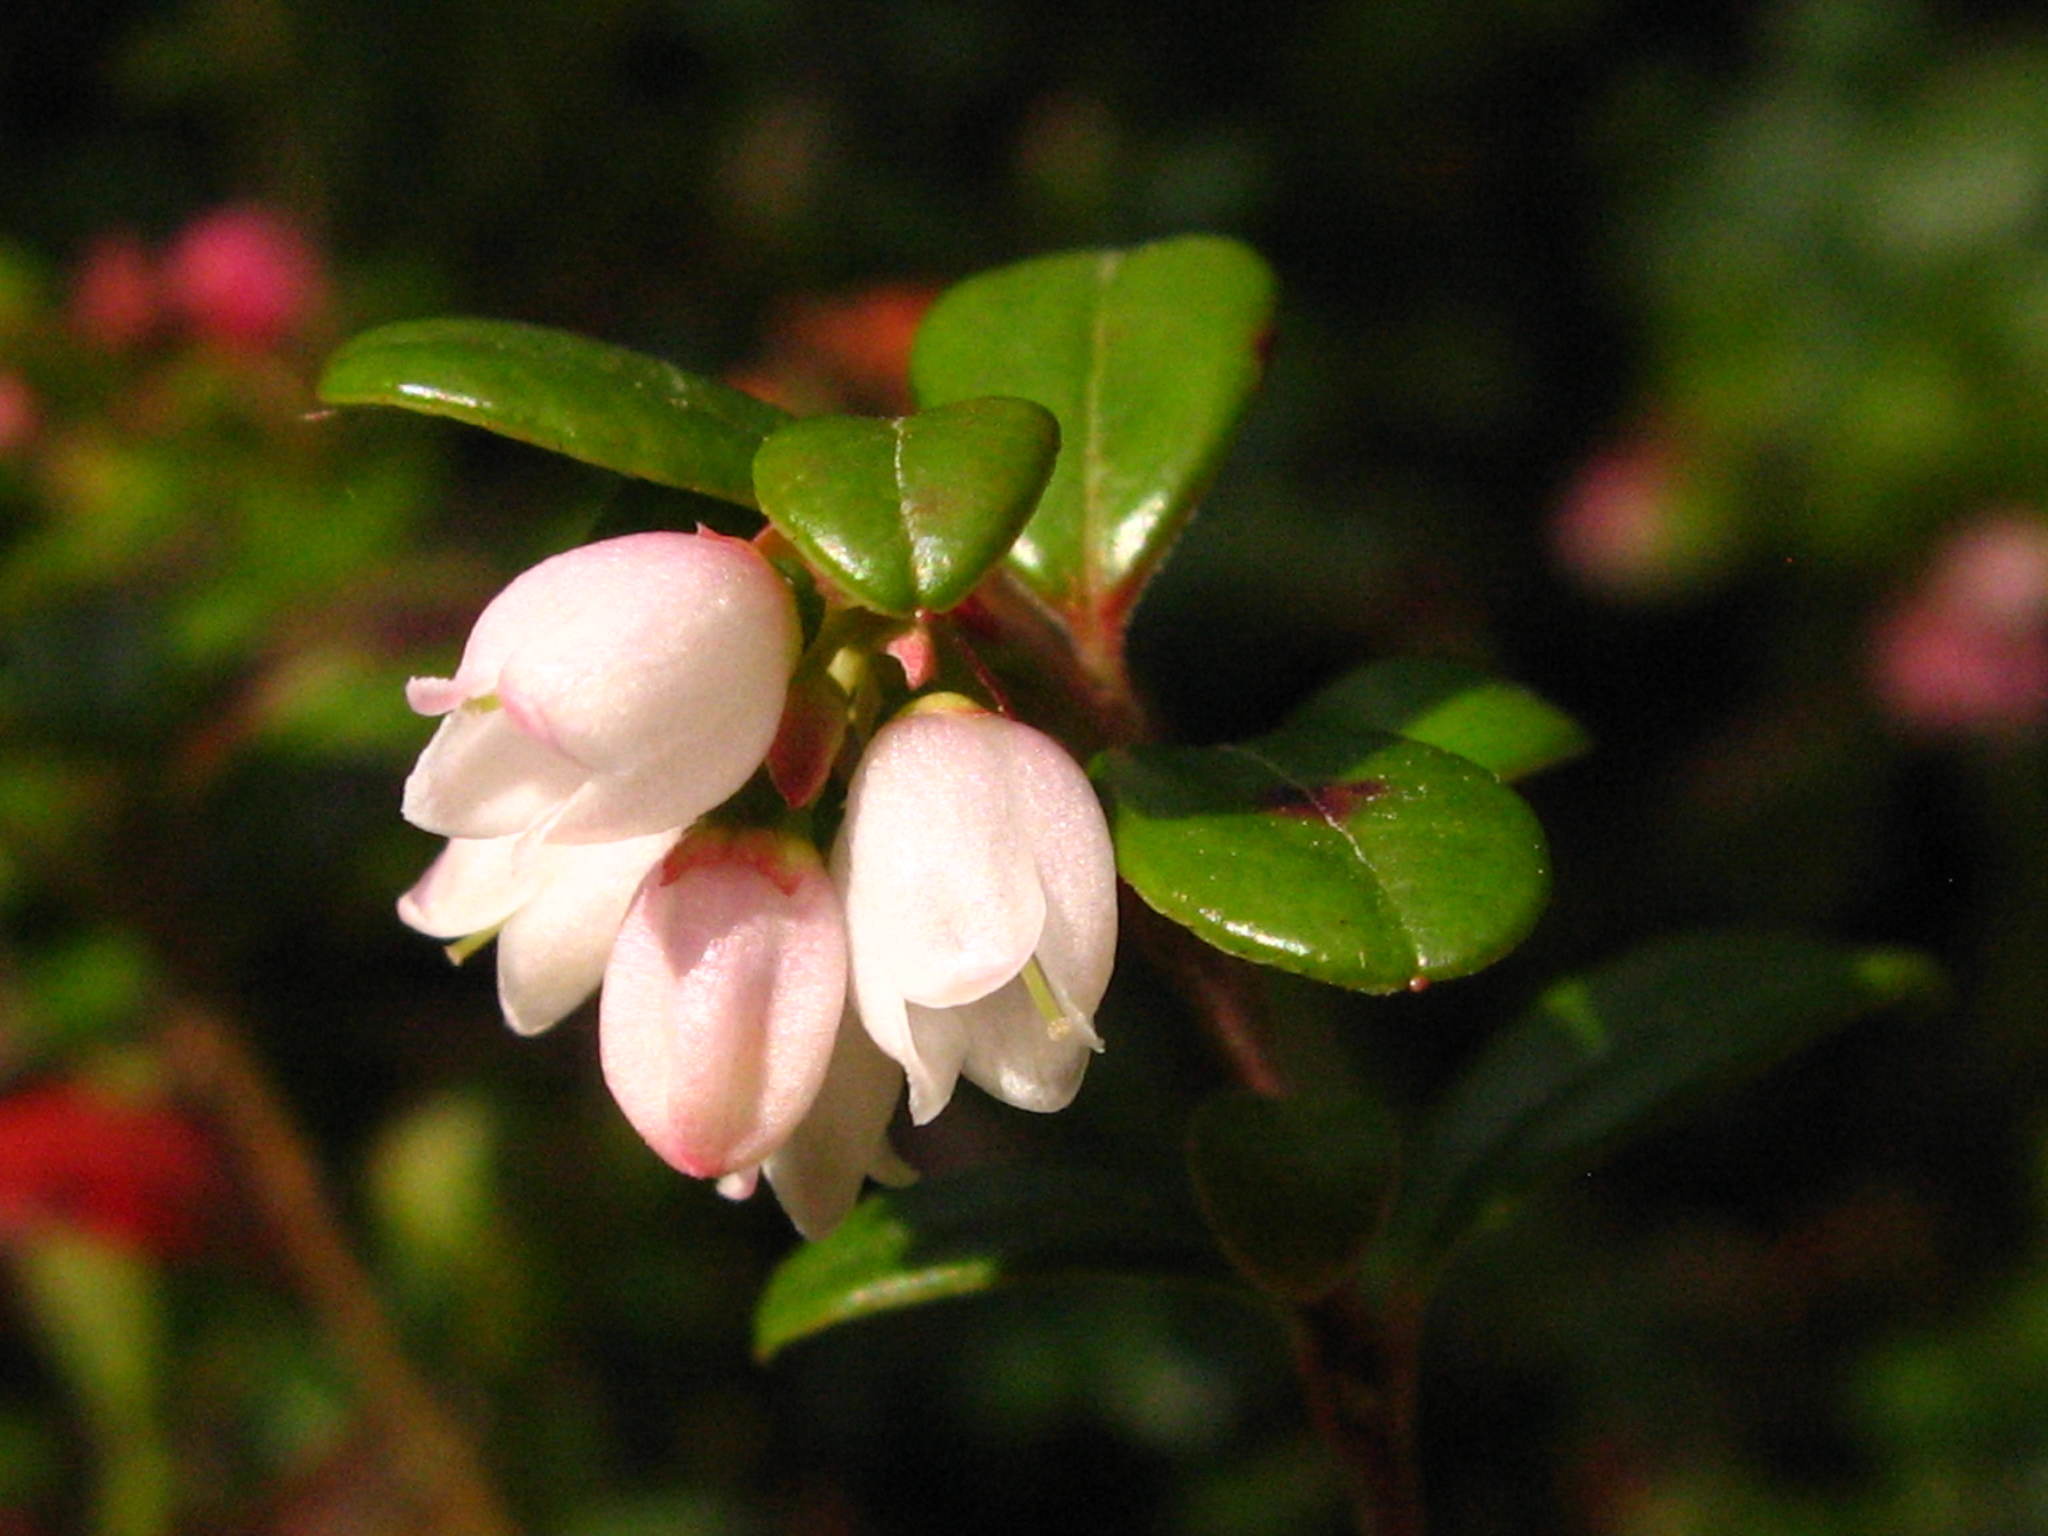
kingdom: Plantae
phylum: Tracheophyta
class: Magnoliopsida
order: Ericales
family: Ericaceae
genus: Vaccinium
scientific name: Vaccinium vitis-idaea
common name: Cowberry
